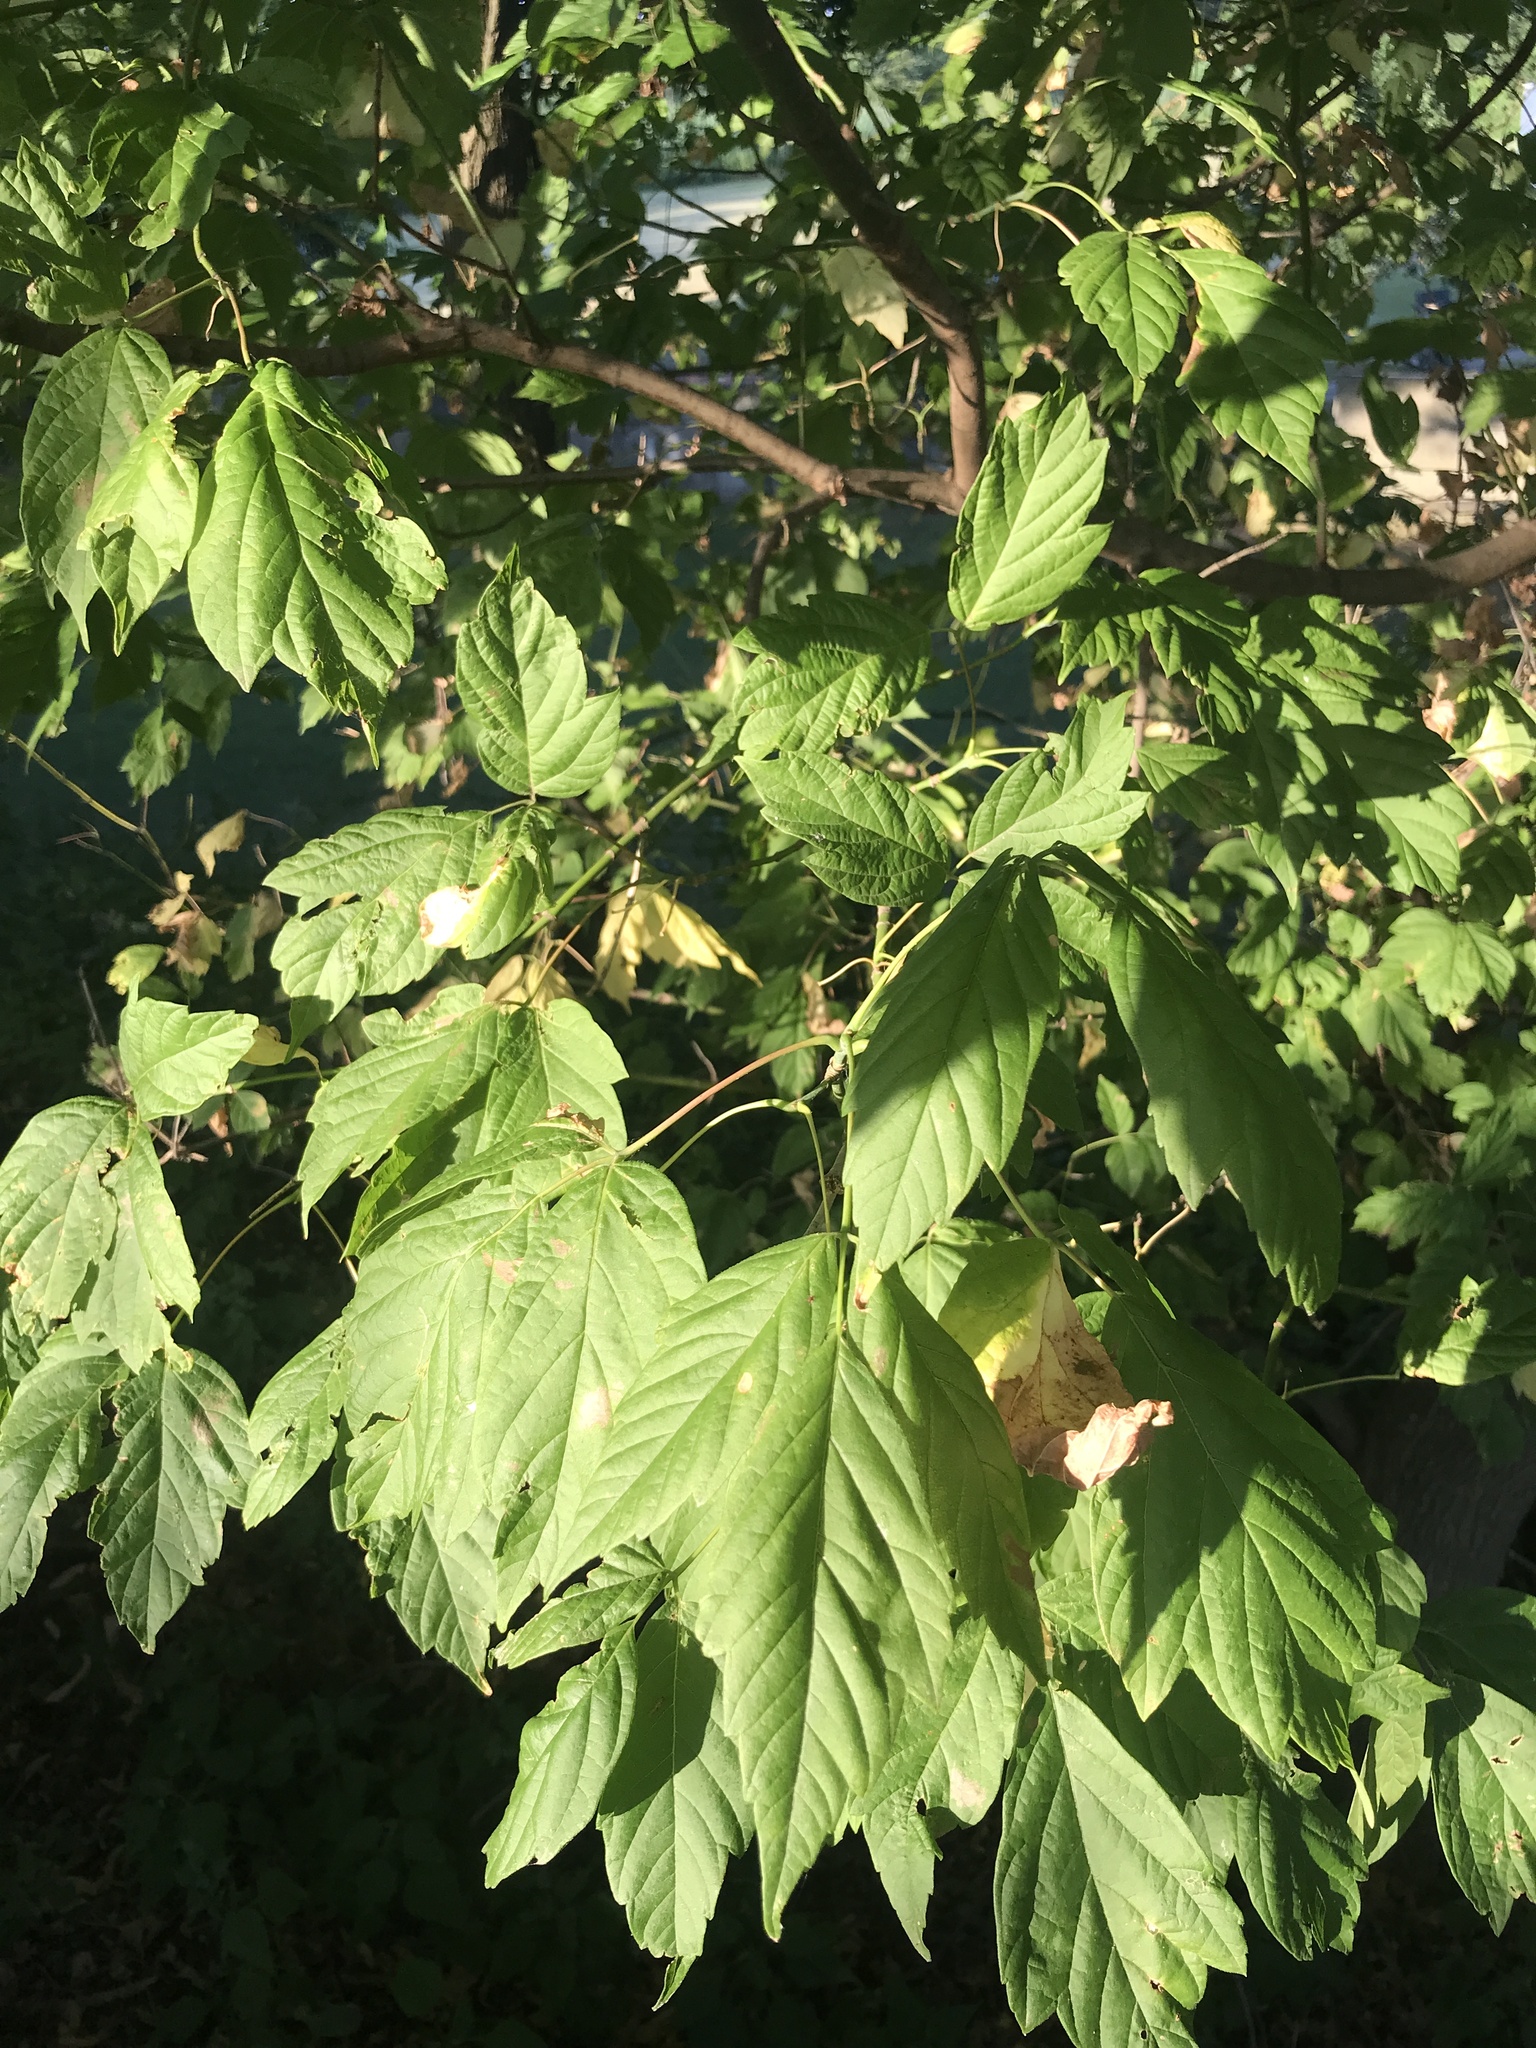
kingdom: Plantae
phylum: Tracheophyta
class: Magnoliopsida
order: Sapindales
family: Sapindaceae
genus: Acer
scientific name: Acer negundo
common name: Ashleaf maple
